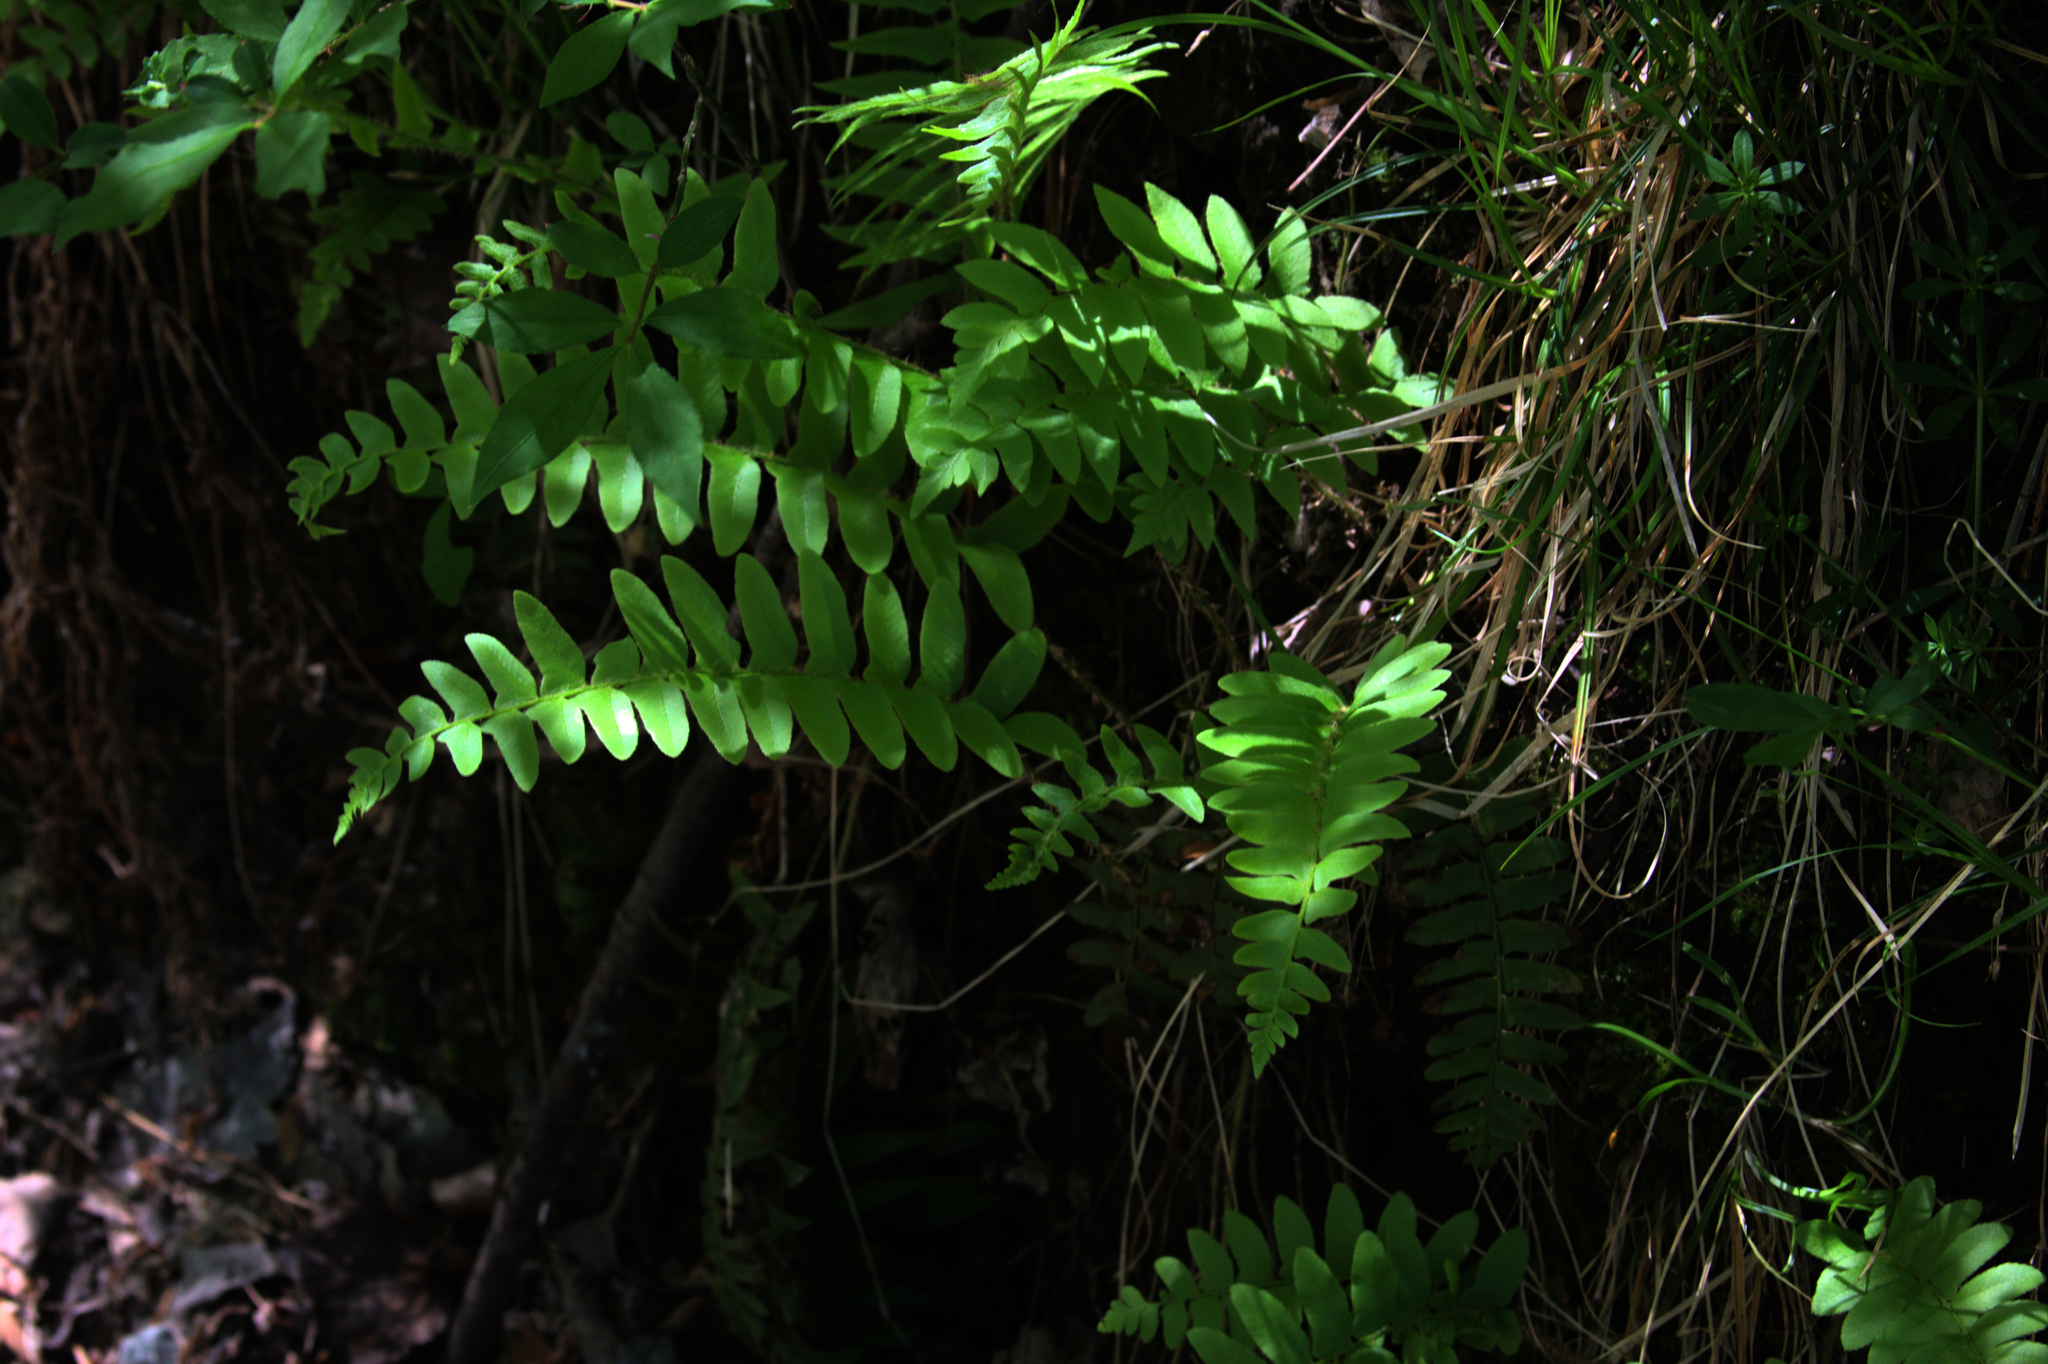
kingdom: Plantae
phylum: Tracheophyta
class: Polypodiopsida
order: Polypodiales
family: Dryopteridaceae
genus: Polystichum
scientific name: Polystichum acrostichoides
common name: Christmas fern
